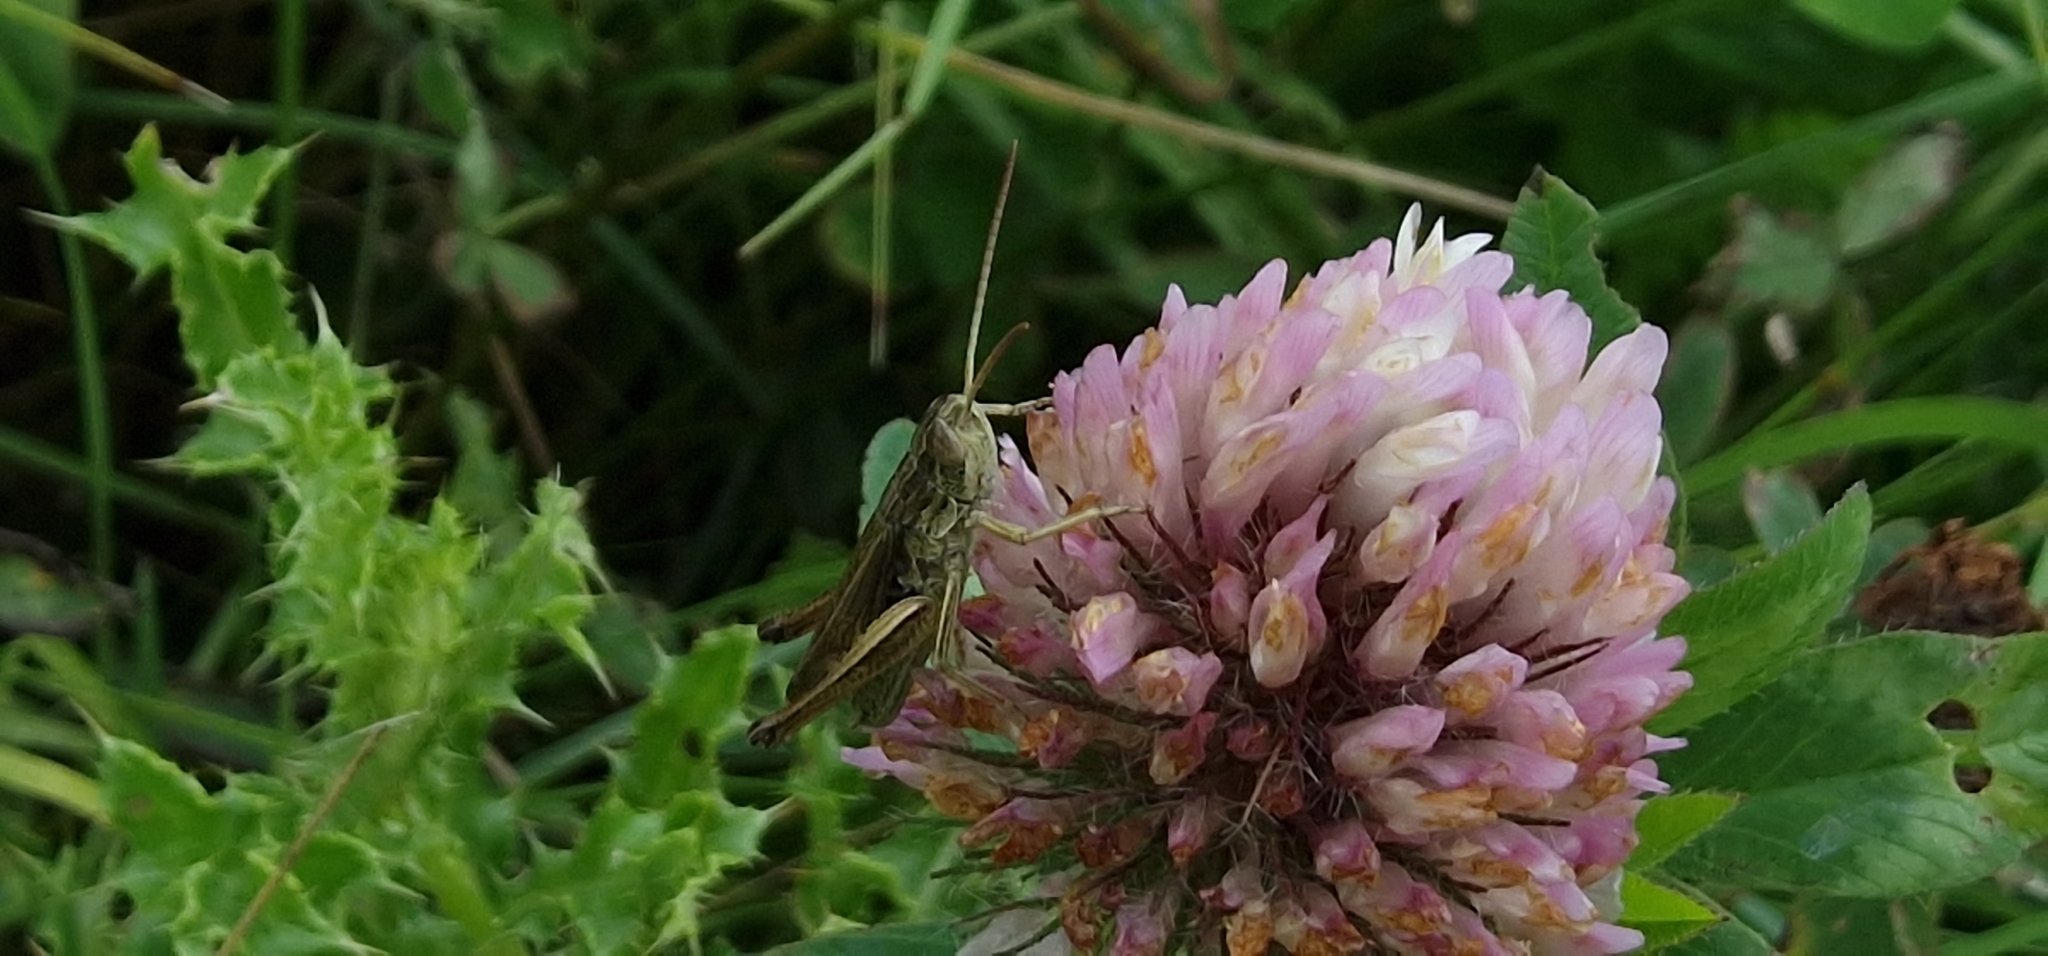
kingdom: Animalia
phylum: Arthropoda
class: Insecta
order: Orthoptera
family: Acrididae
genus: Chorthippus
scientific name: Chorthippus albomarginatus
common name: Lesser marsh grasshopper
